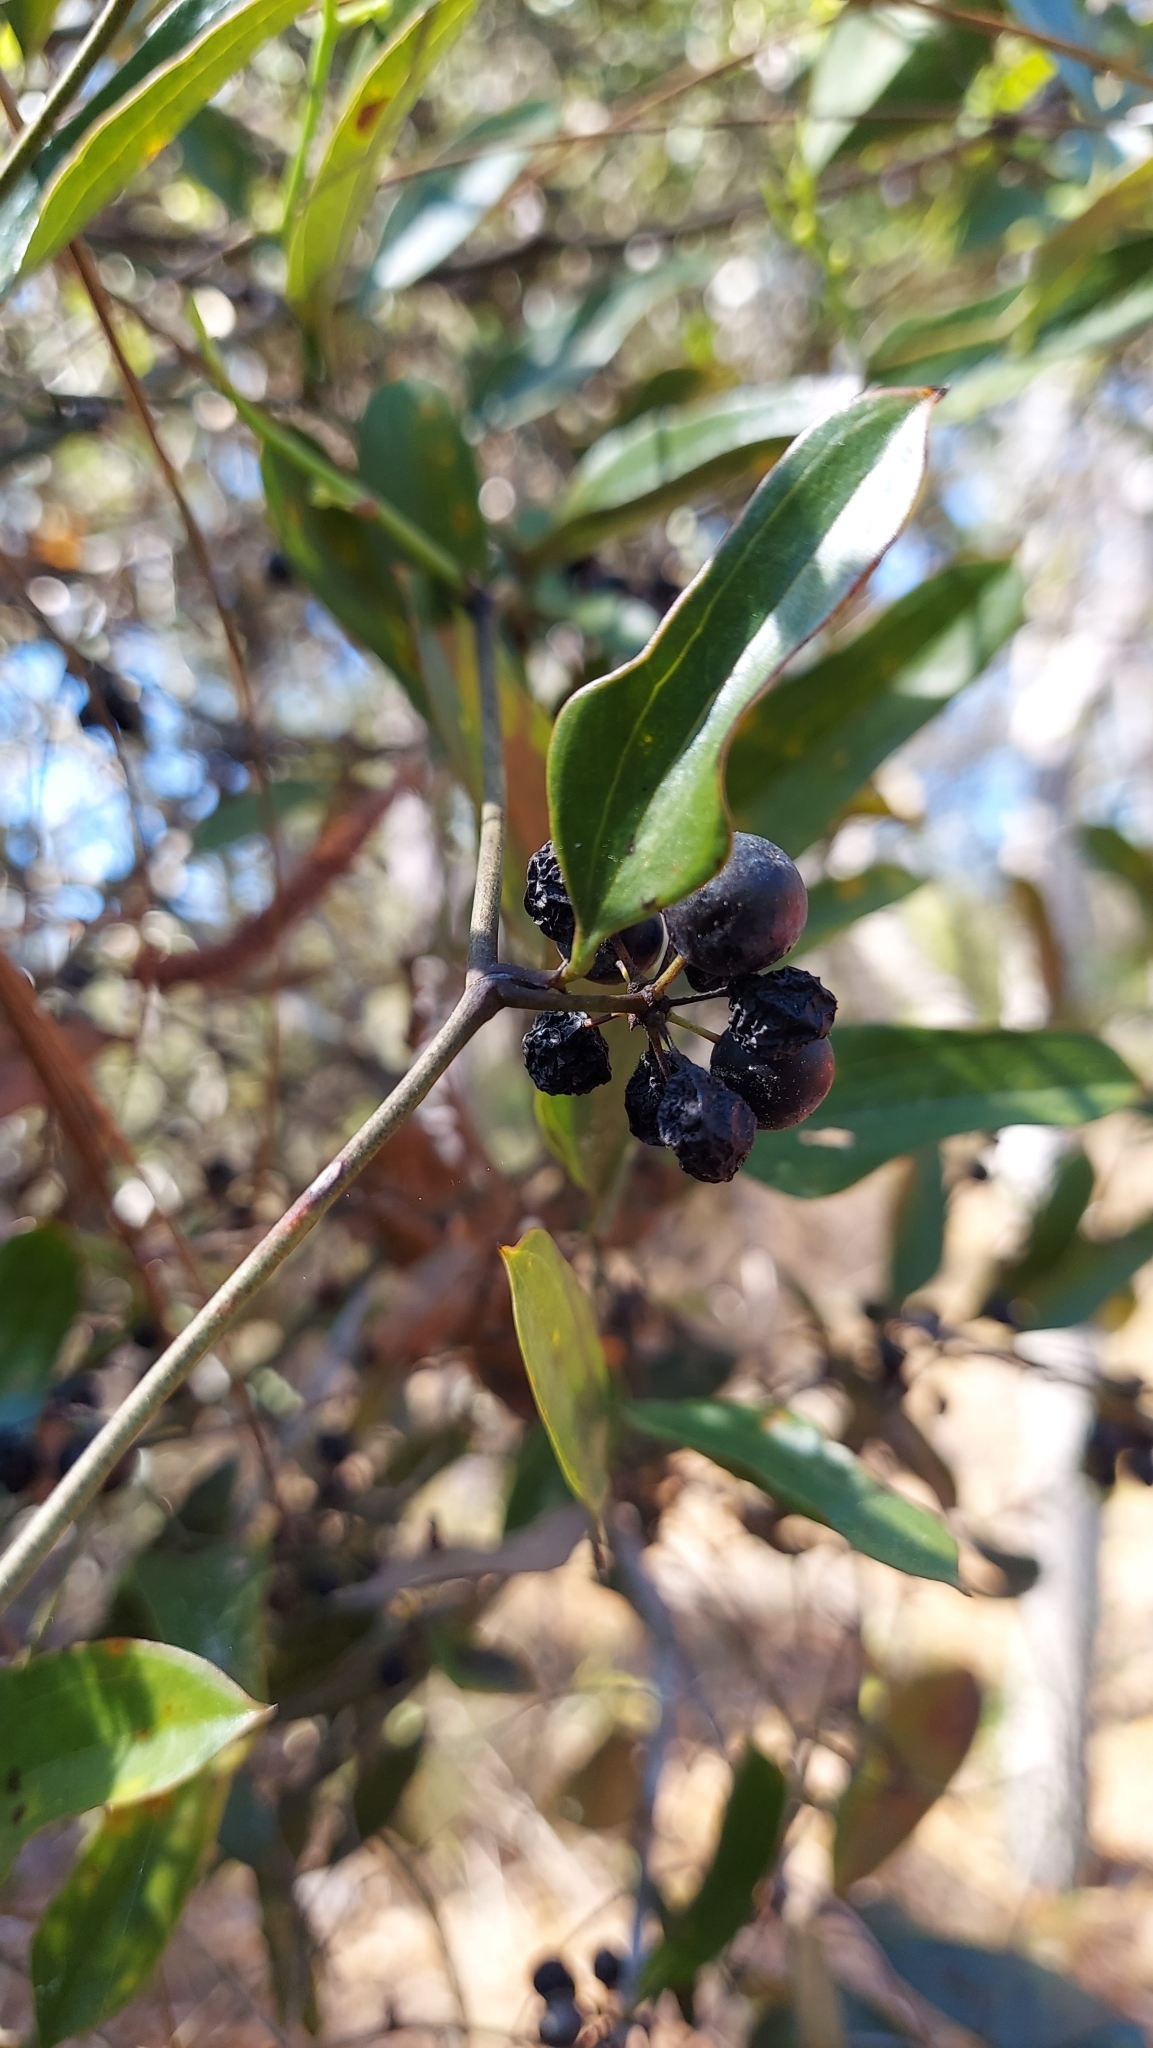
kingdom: Plantae
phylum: Tracheophyta
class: Liliopsida
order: Liliales
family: Smilacaceae
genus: Smilax
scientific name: Smilax auriculata
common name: Wild bamboo
